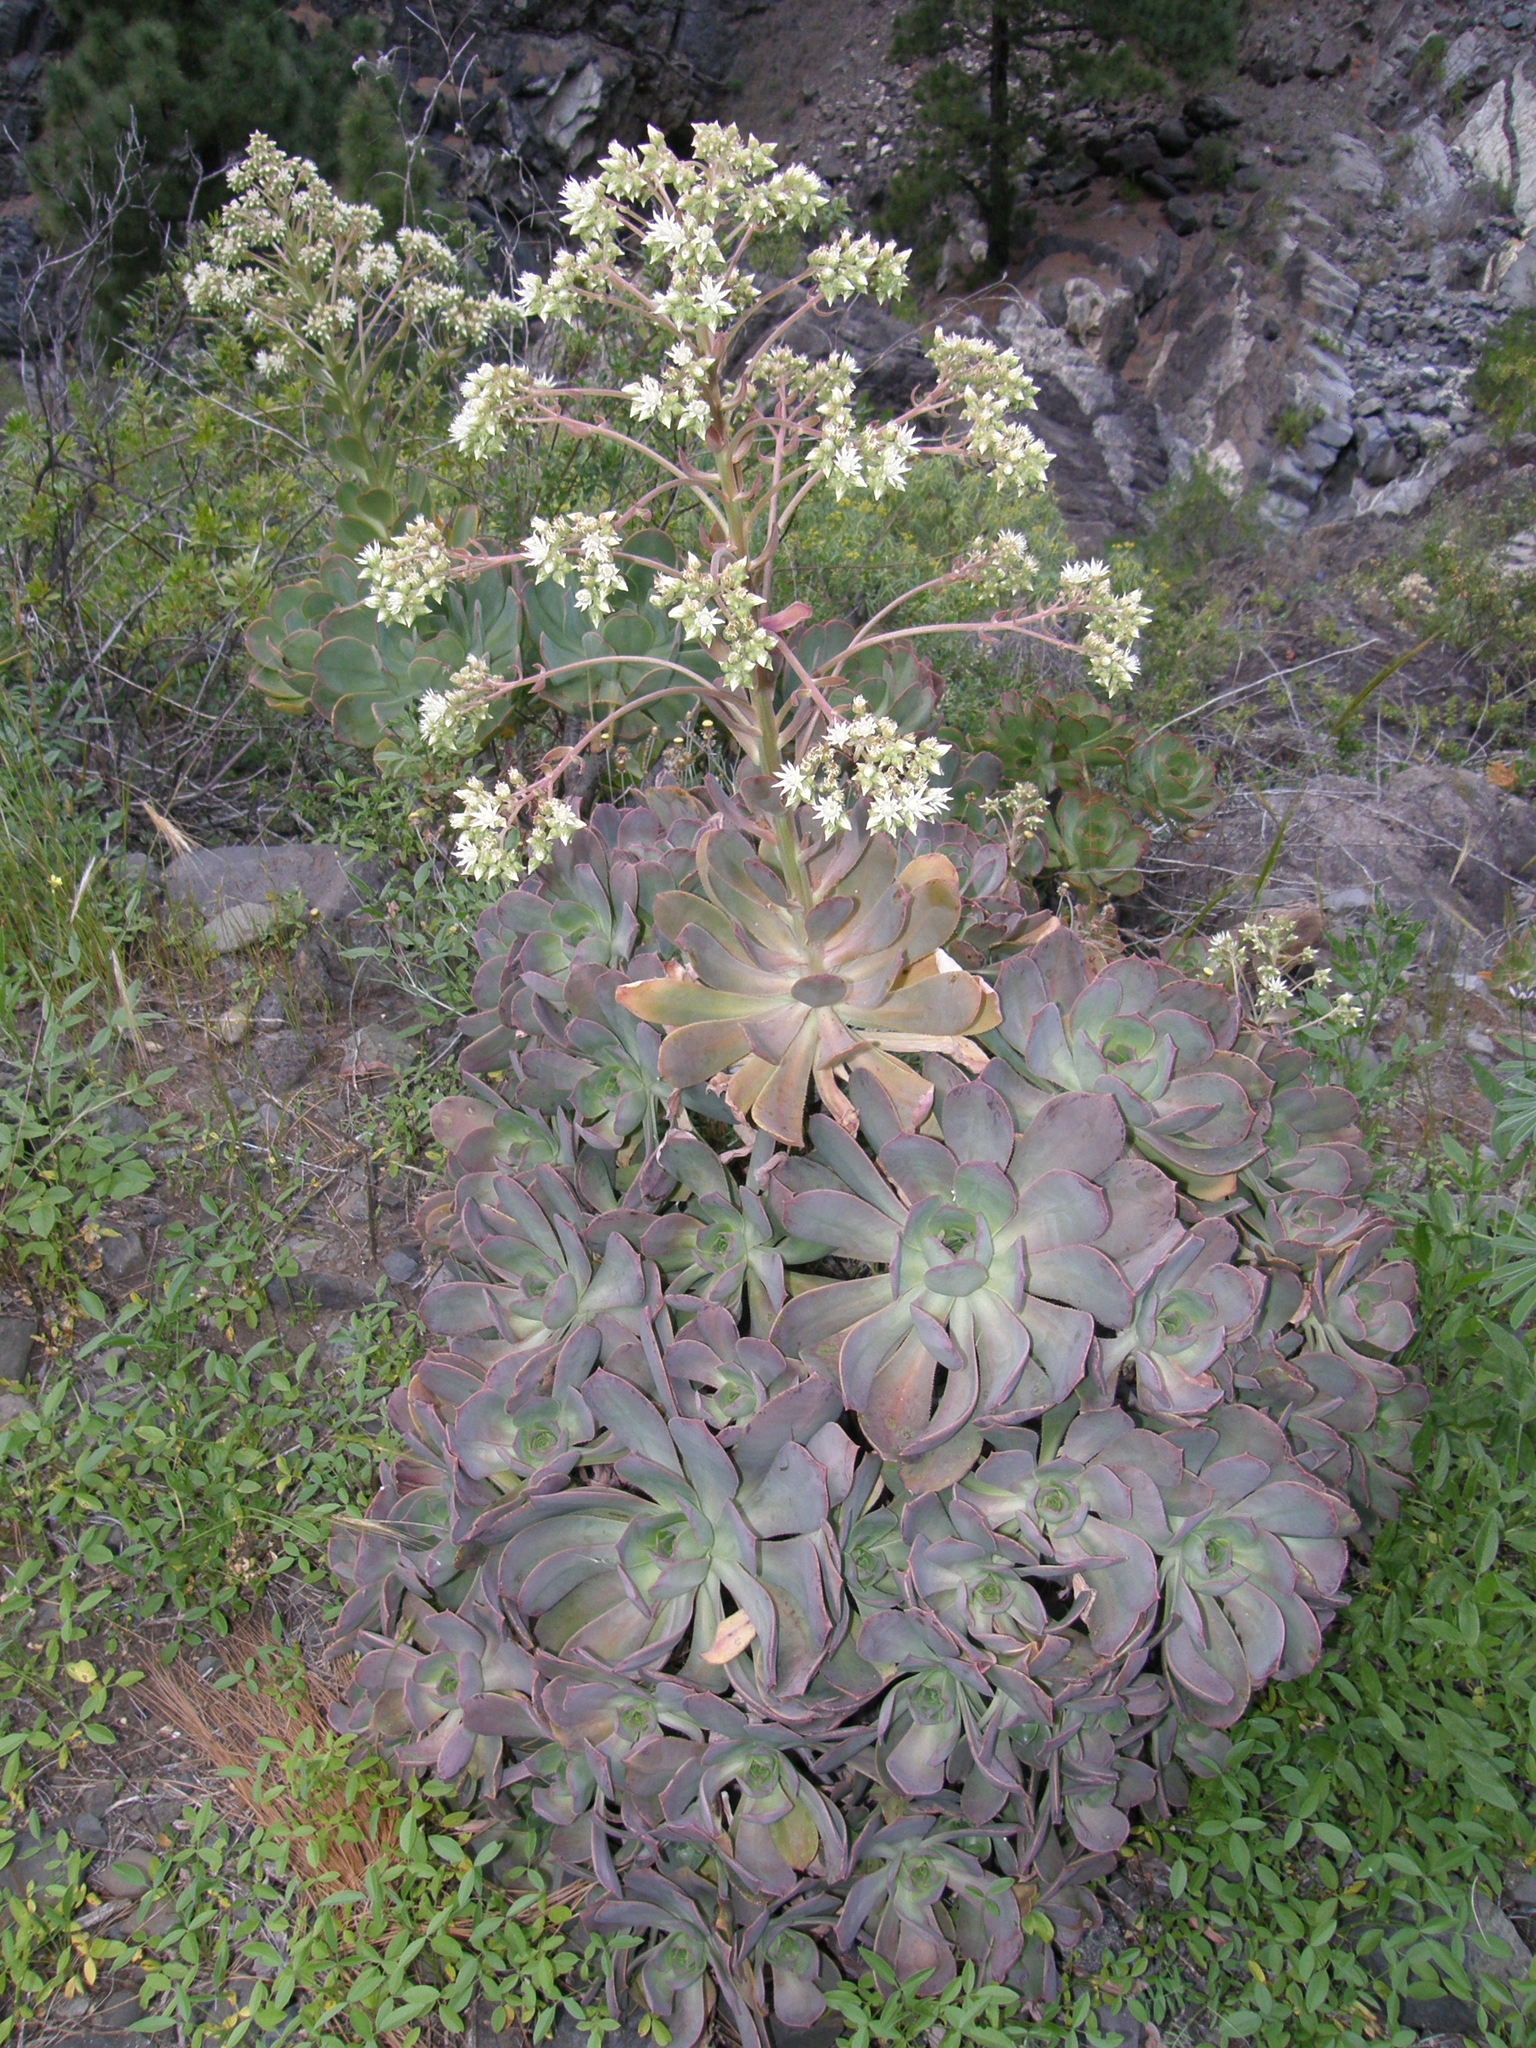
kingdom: Plantae
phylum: Tracheophyta
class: Magnoliopsida
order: Saxifragales
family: Crassulaceae
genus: Aeonium
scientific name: Aeonium davidbramwellii
